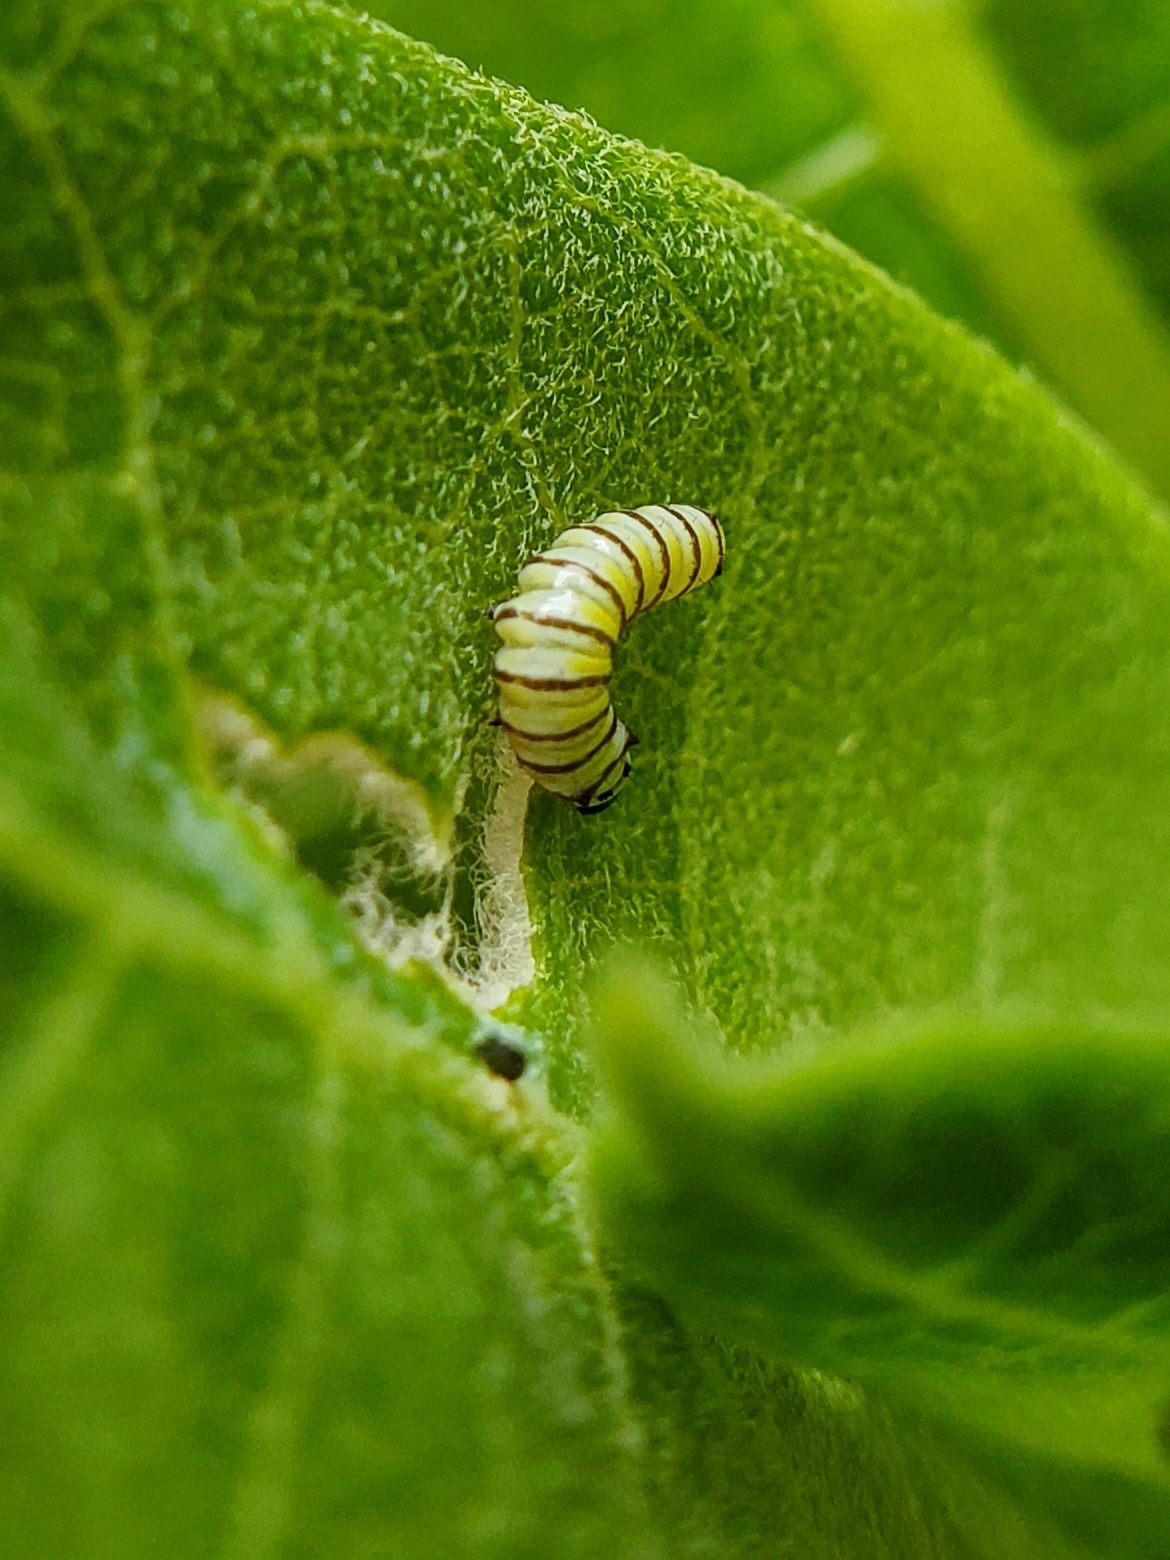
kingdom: Animalia
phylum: Arthropoda
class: Insecta
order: Lepidoptera
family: Nymphalidae
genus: Danaus
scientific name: Danaus plexippus
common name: Monarch
